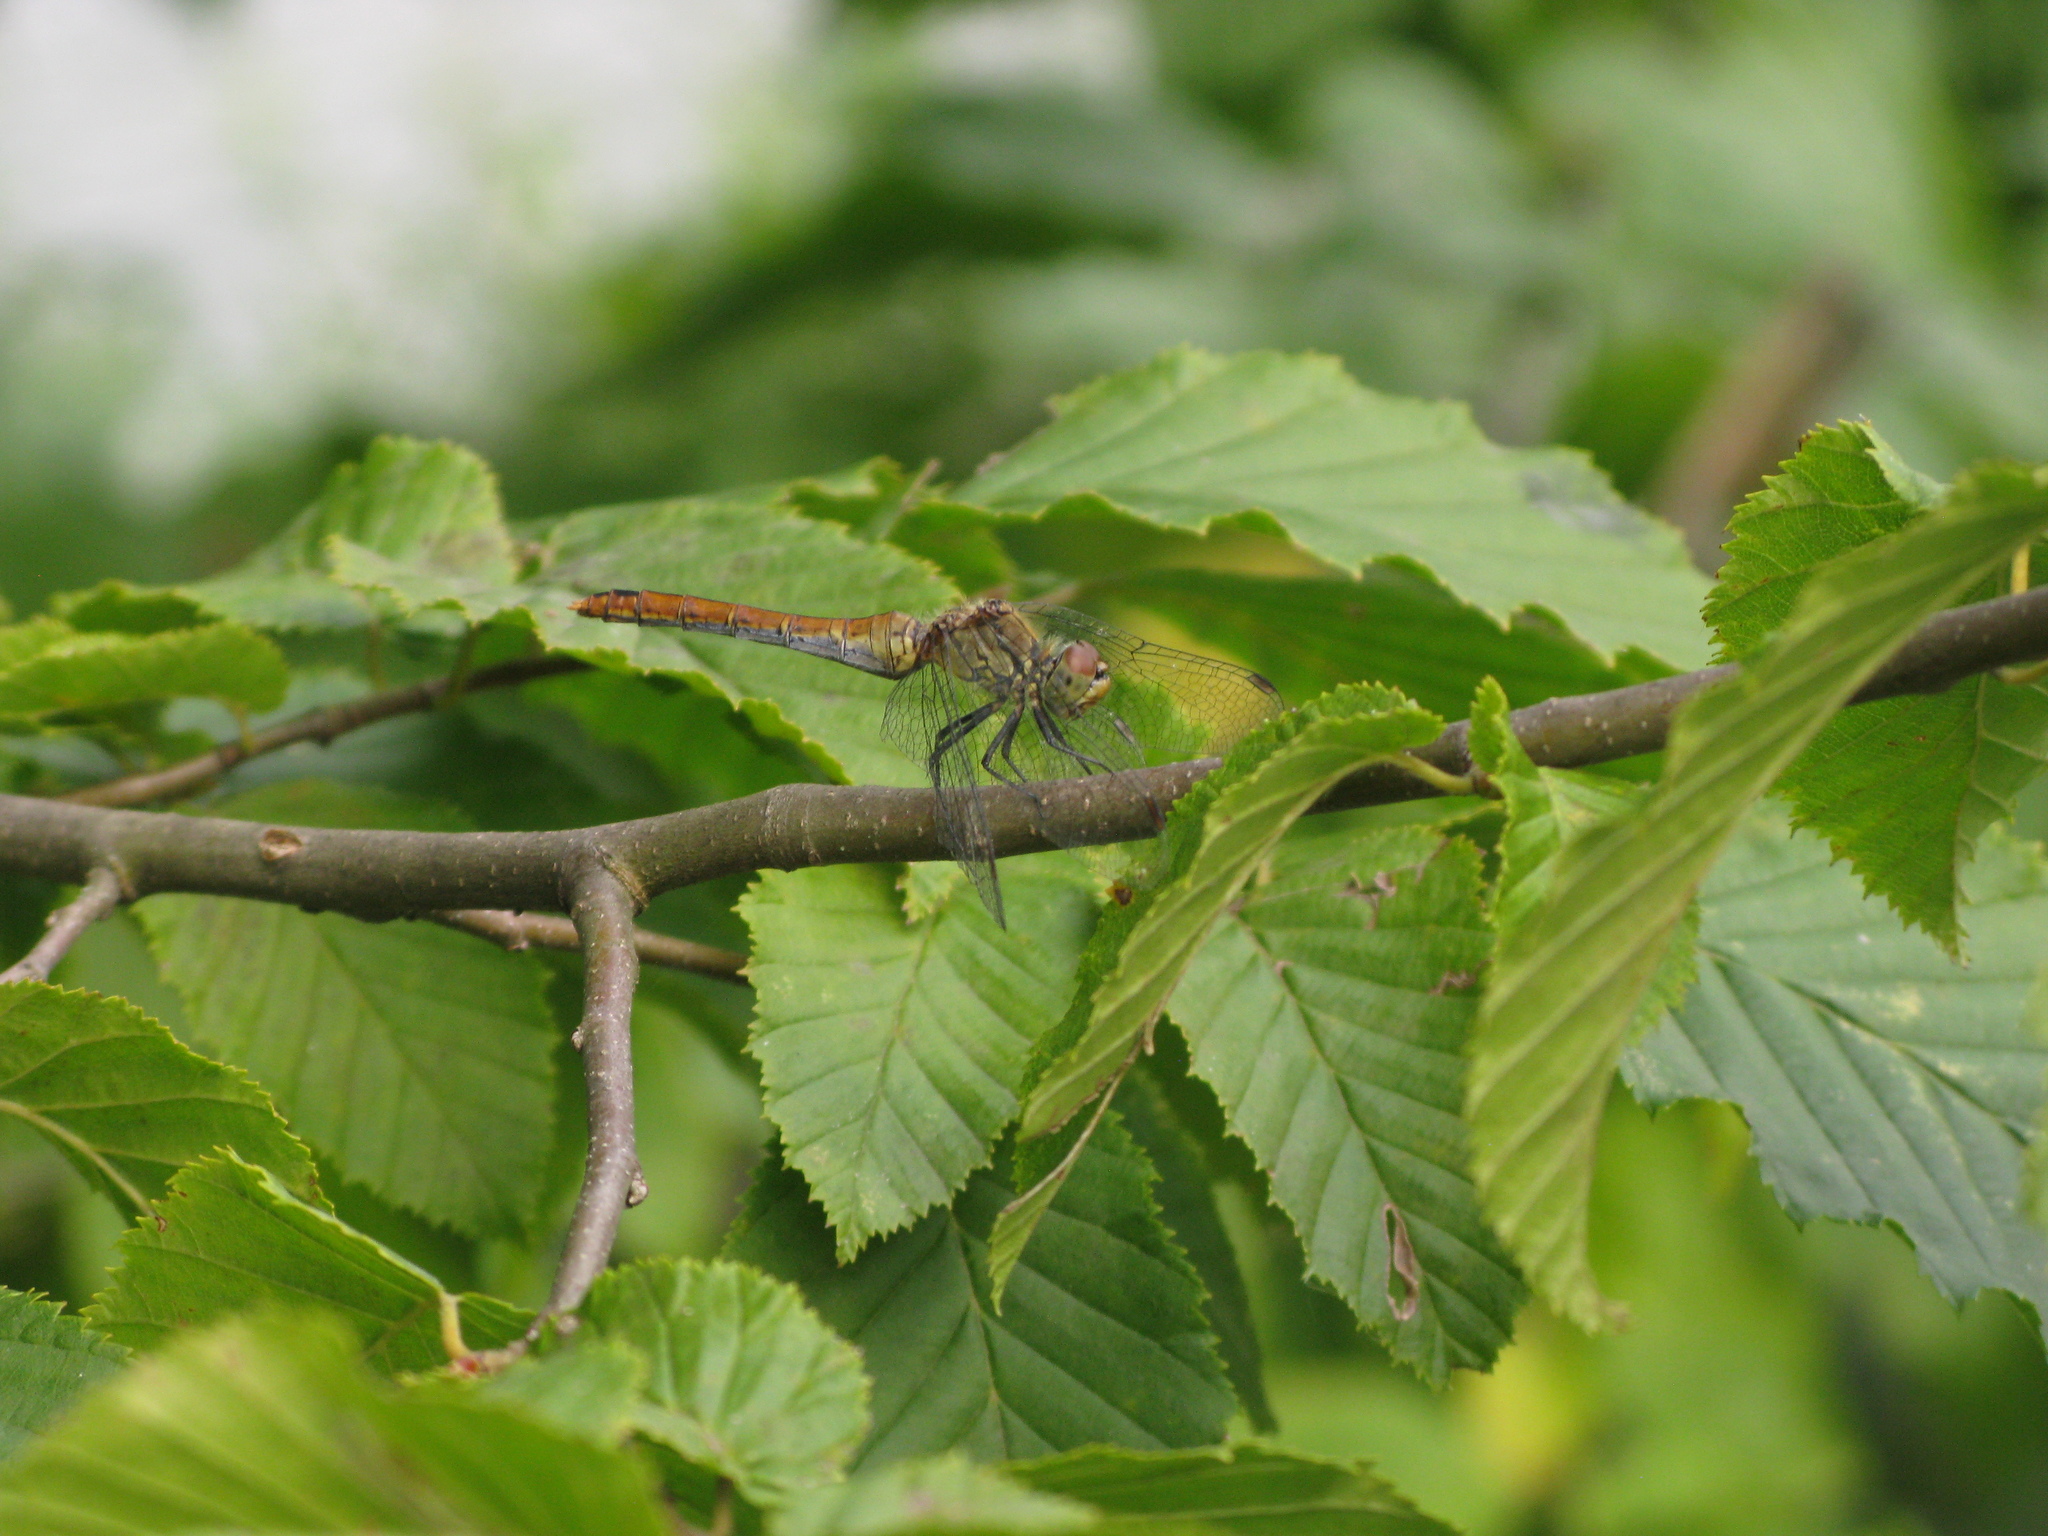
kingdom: Animalia
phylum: Arthropoda
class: Insecta
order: Odonata
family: Libellulidae
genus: Sympetrum
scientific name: Sympetrum sanguineum
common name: Ruddy darter
